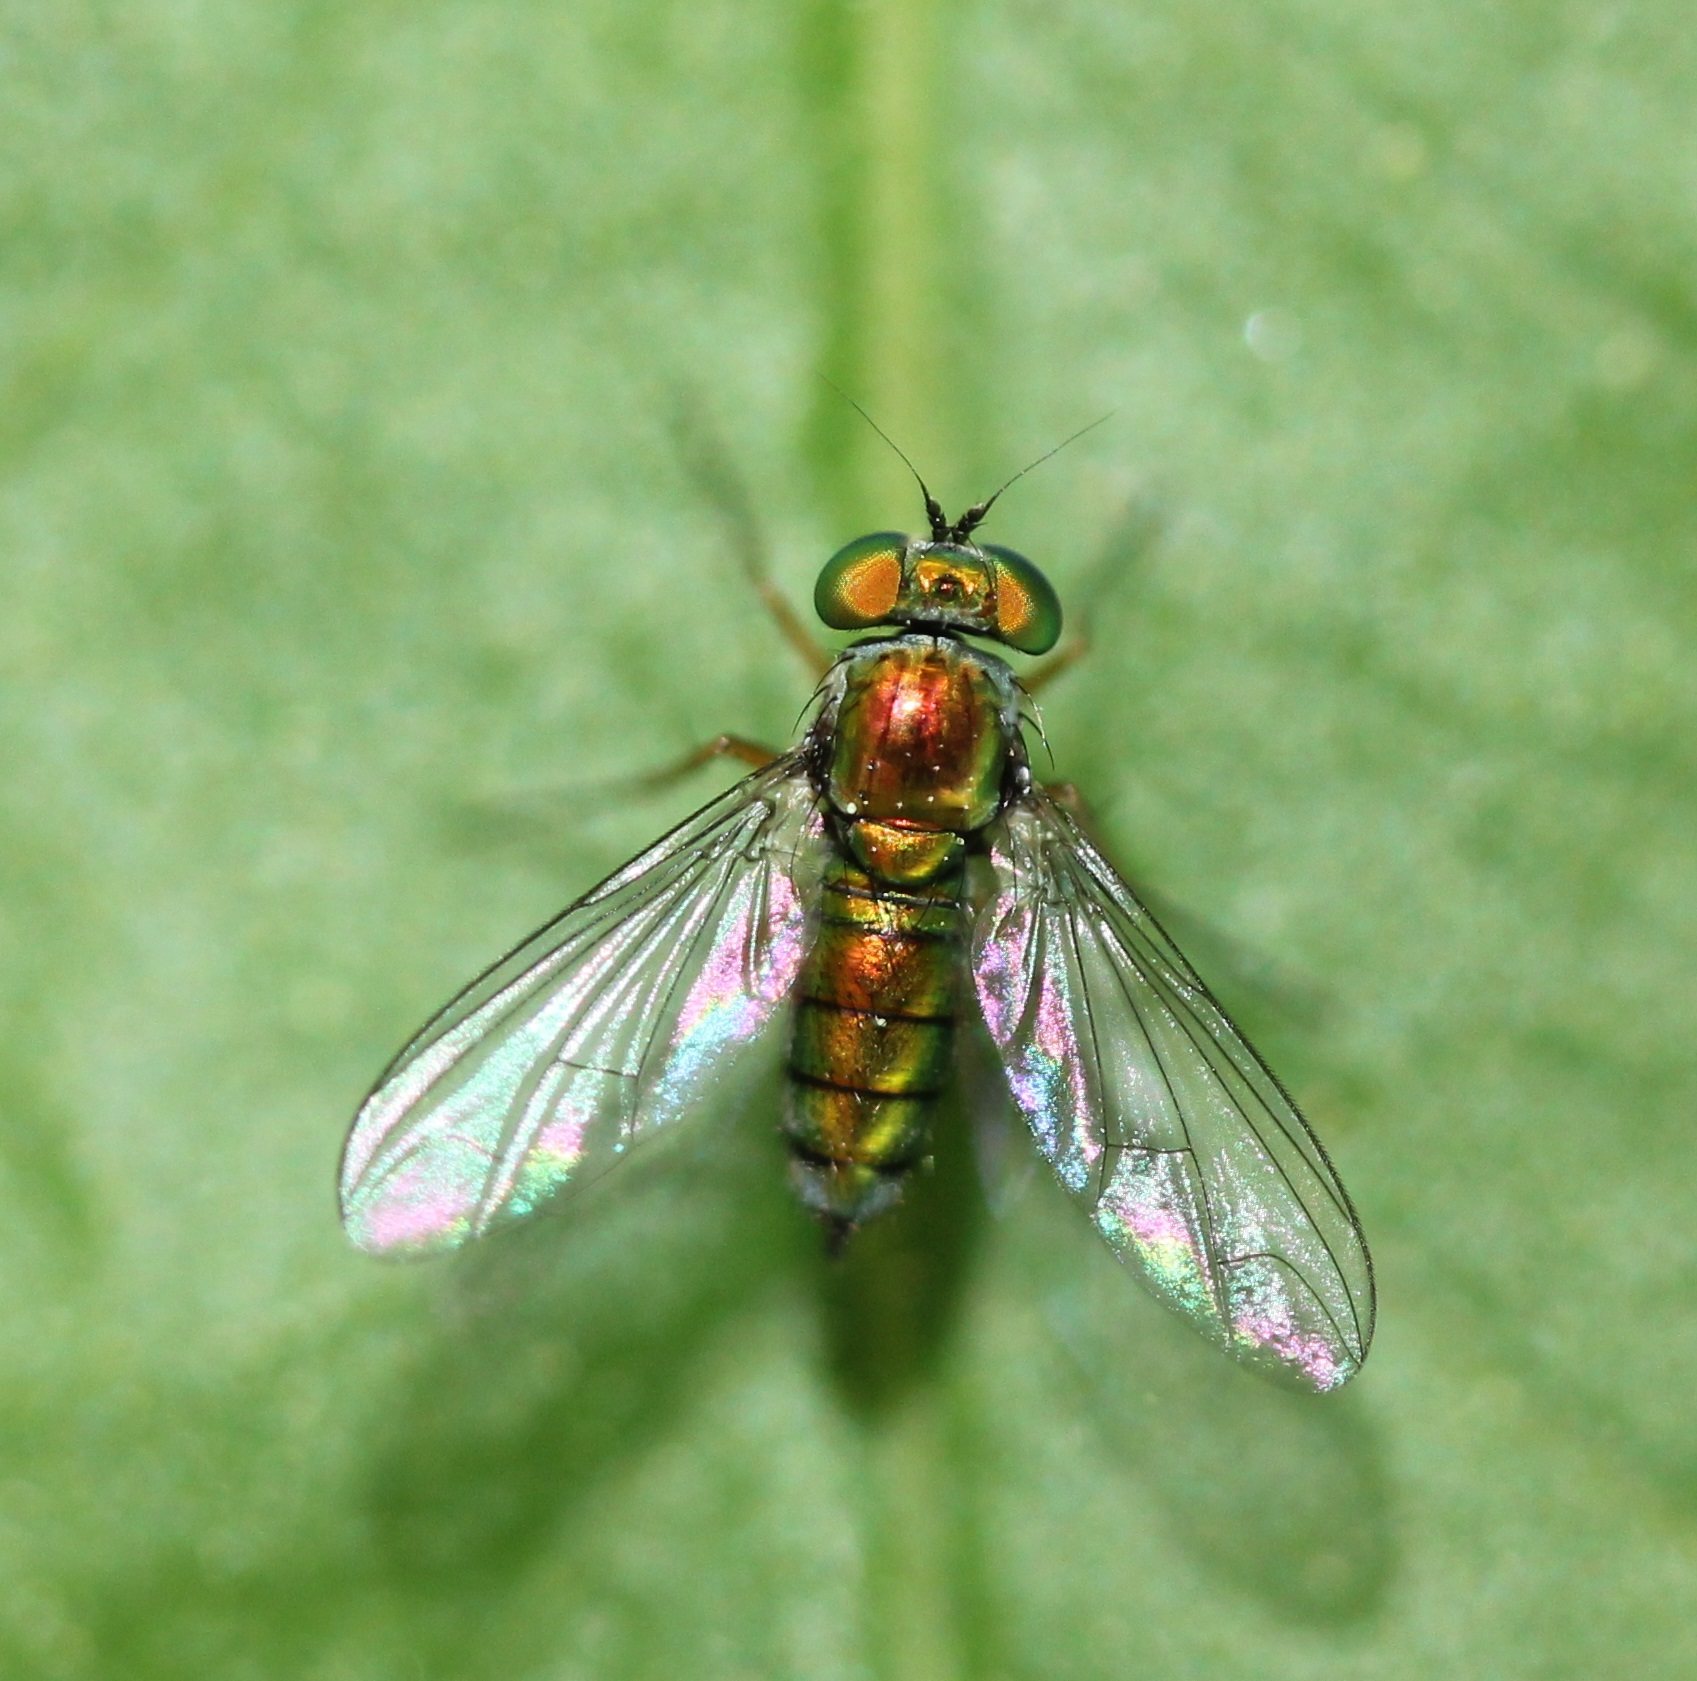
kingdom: Animalia
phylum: Arthropoda
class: Insecta
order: Diptera
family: Dolichopodidae
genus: Condylostylus
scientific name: Condylostylus
